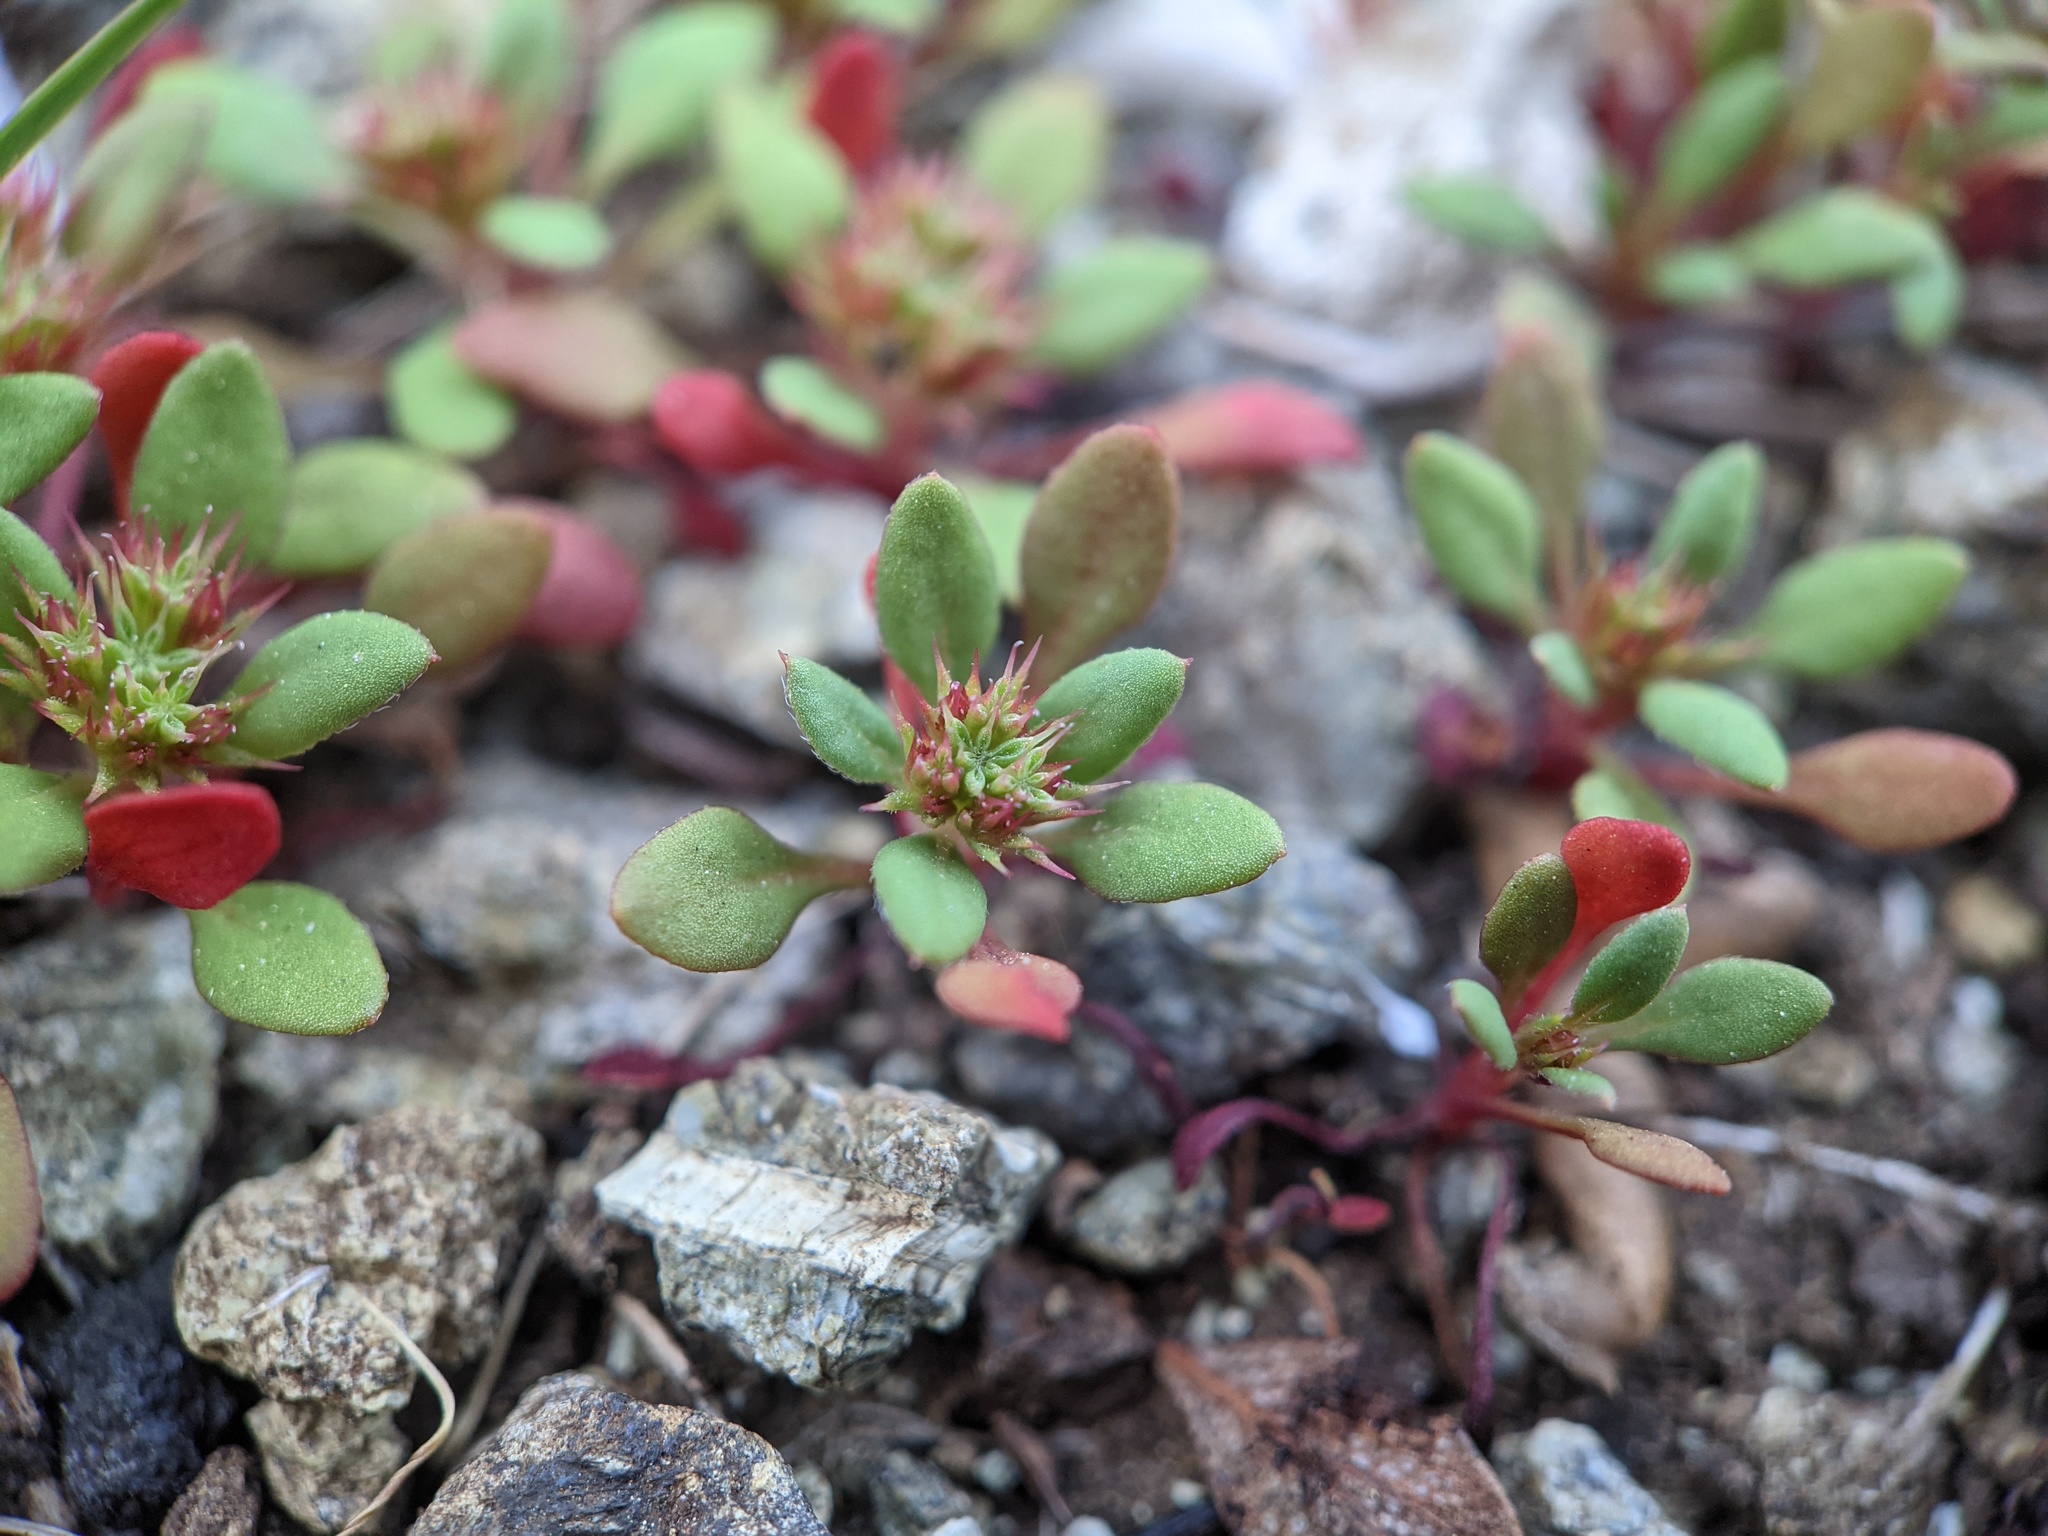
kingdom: Plantae
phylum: Tracheophyta
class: Magnoliopsida
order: Caryophyllales
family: Polygonaceae
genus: Chorizanthe
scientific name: Chorizanthe aphanantha
